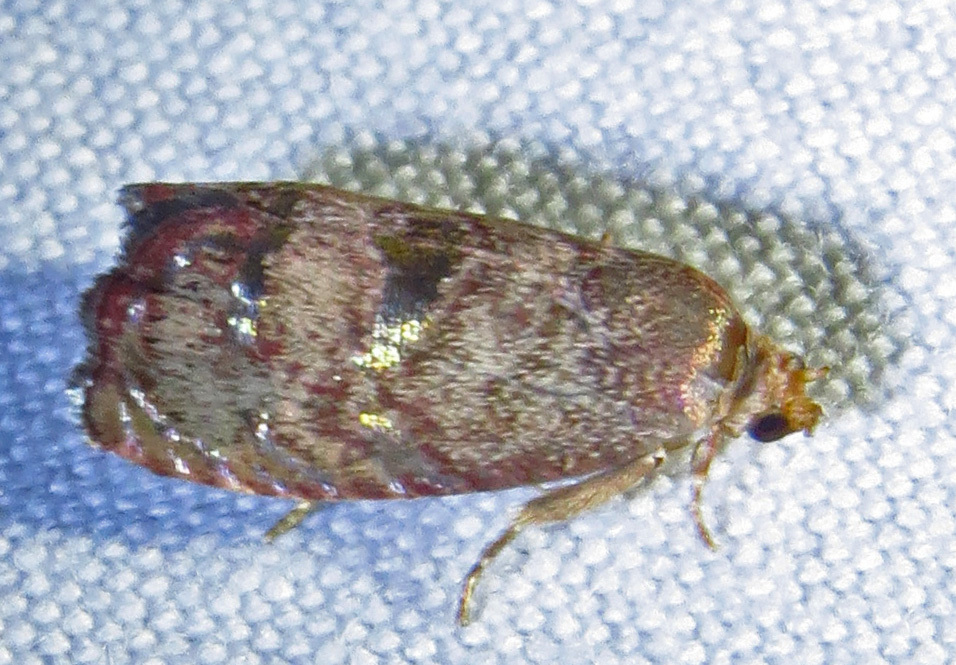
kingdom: Animalia
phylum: Arthropoda
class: Insecta
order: Lepidoptera
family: Tortricidae
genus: Cydia
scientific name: Cydia latiferreana
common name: Filbertworm moth
